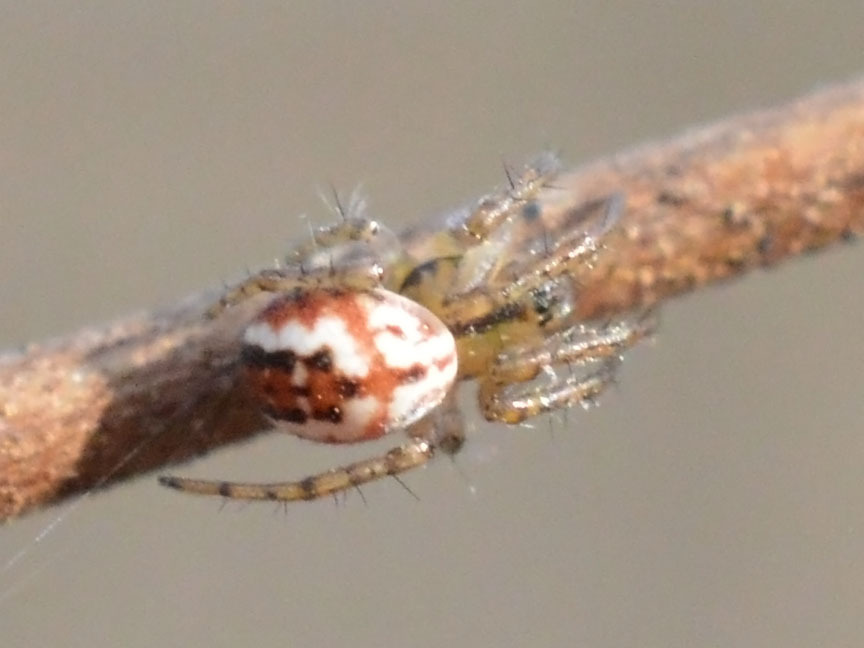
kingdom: Animalia
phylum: Arthropoda
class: Arachnida
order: Araneae
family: Araneidae
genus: Mangora
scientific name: Mangora acalypha
